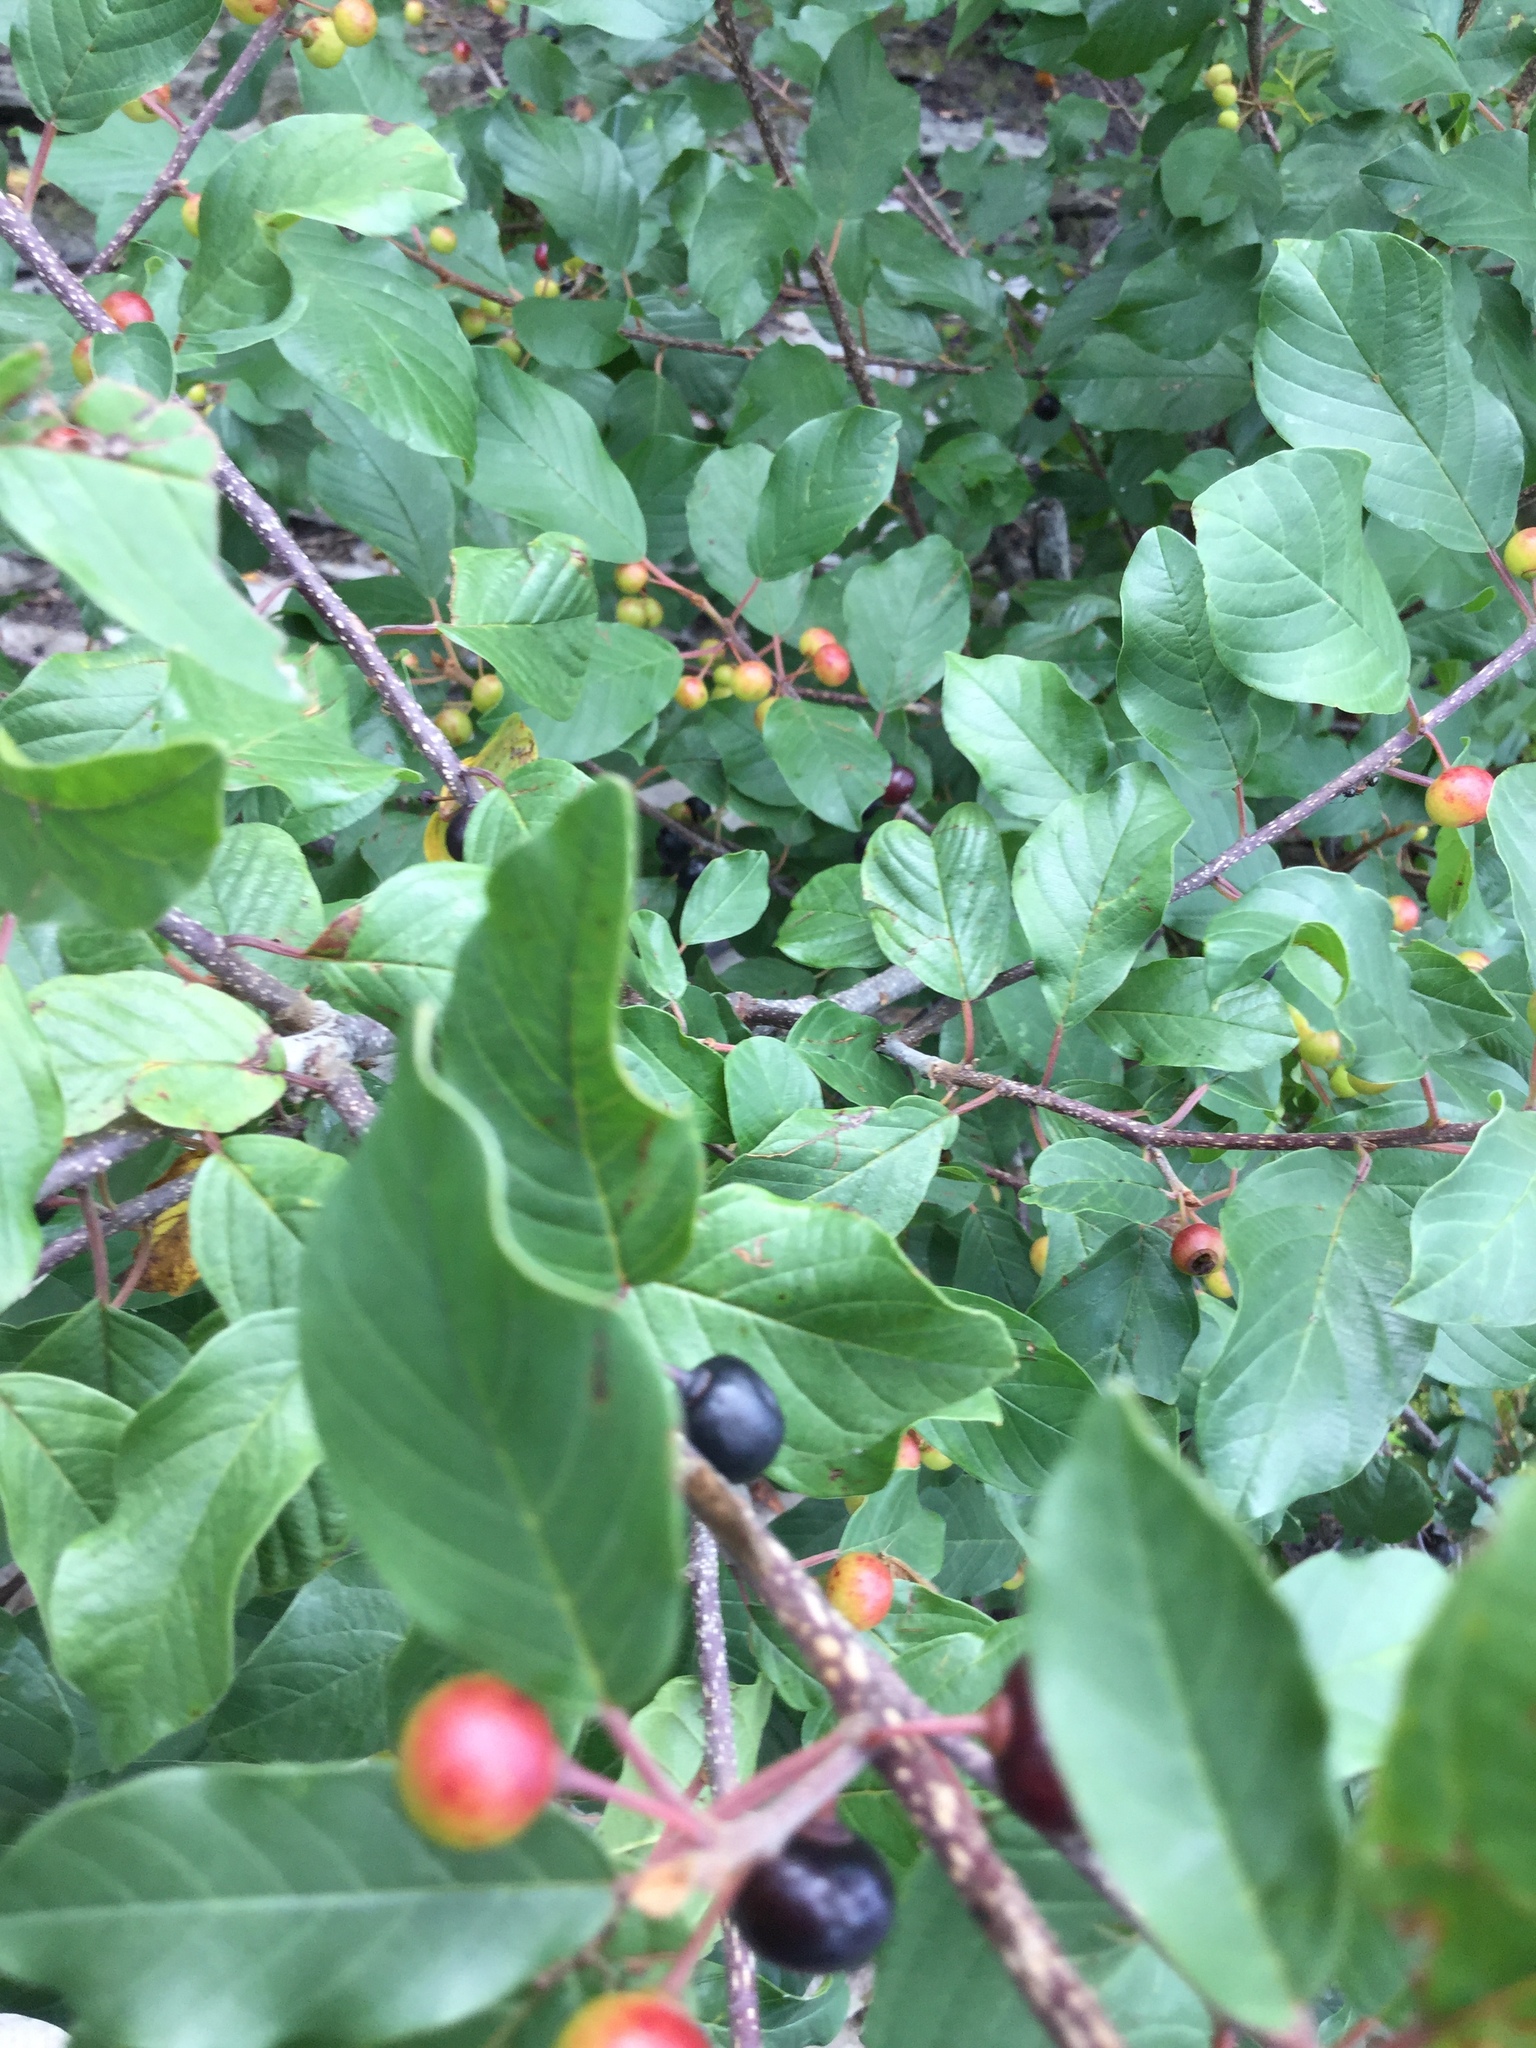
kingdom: Plantae
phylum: Tracheophyta
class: Magnoliopsida
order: Rosales
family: Rhamnaceae
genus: Frangula
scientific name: Frangula alnus
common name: Alder buckthorn
